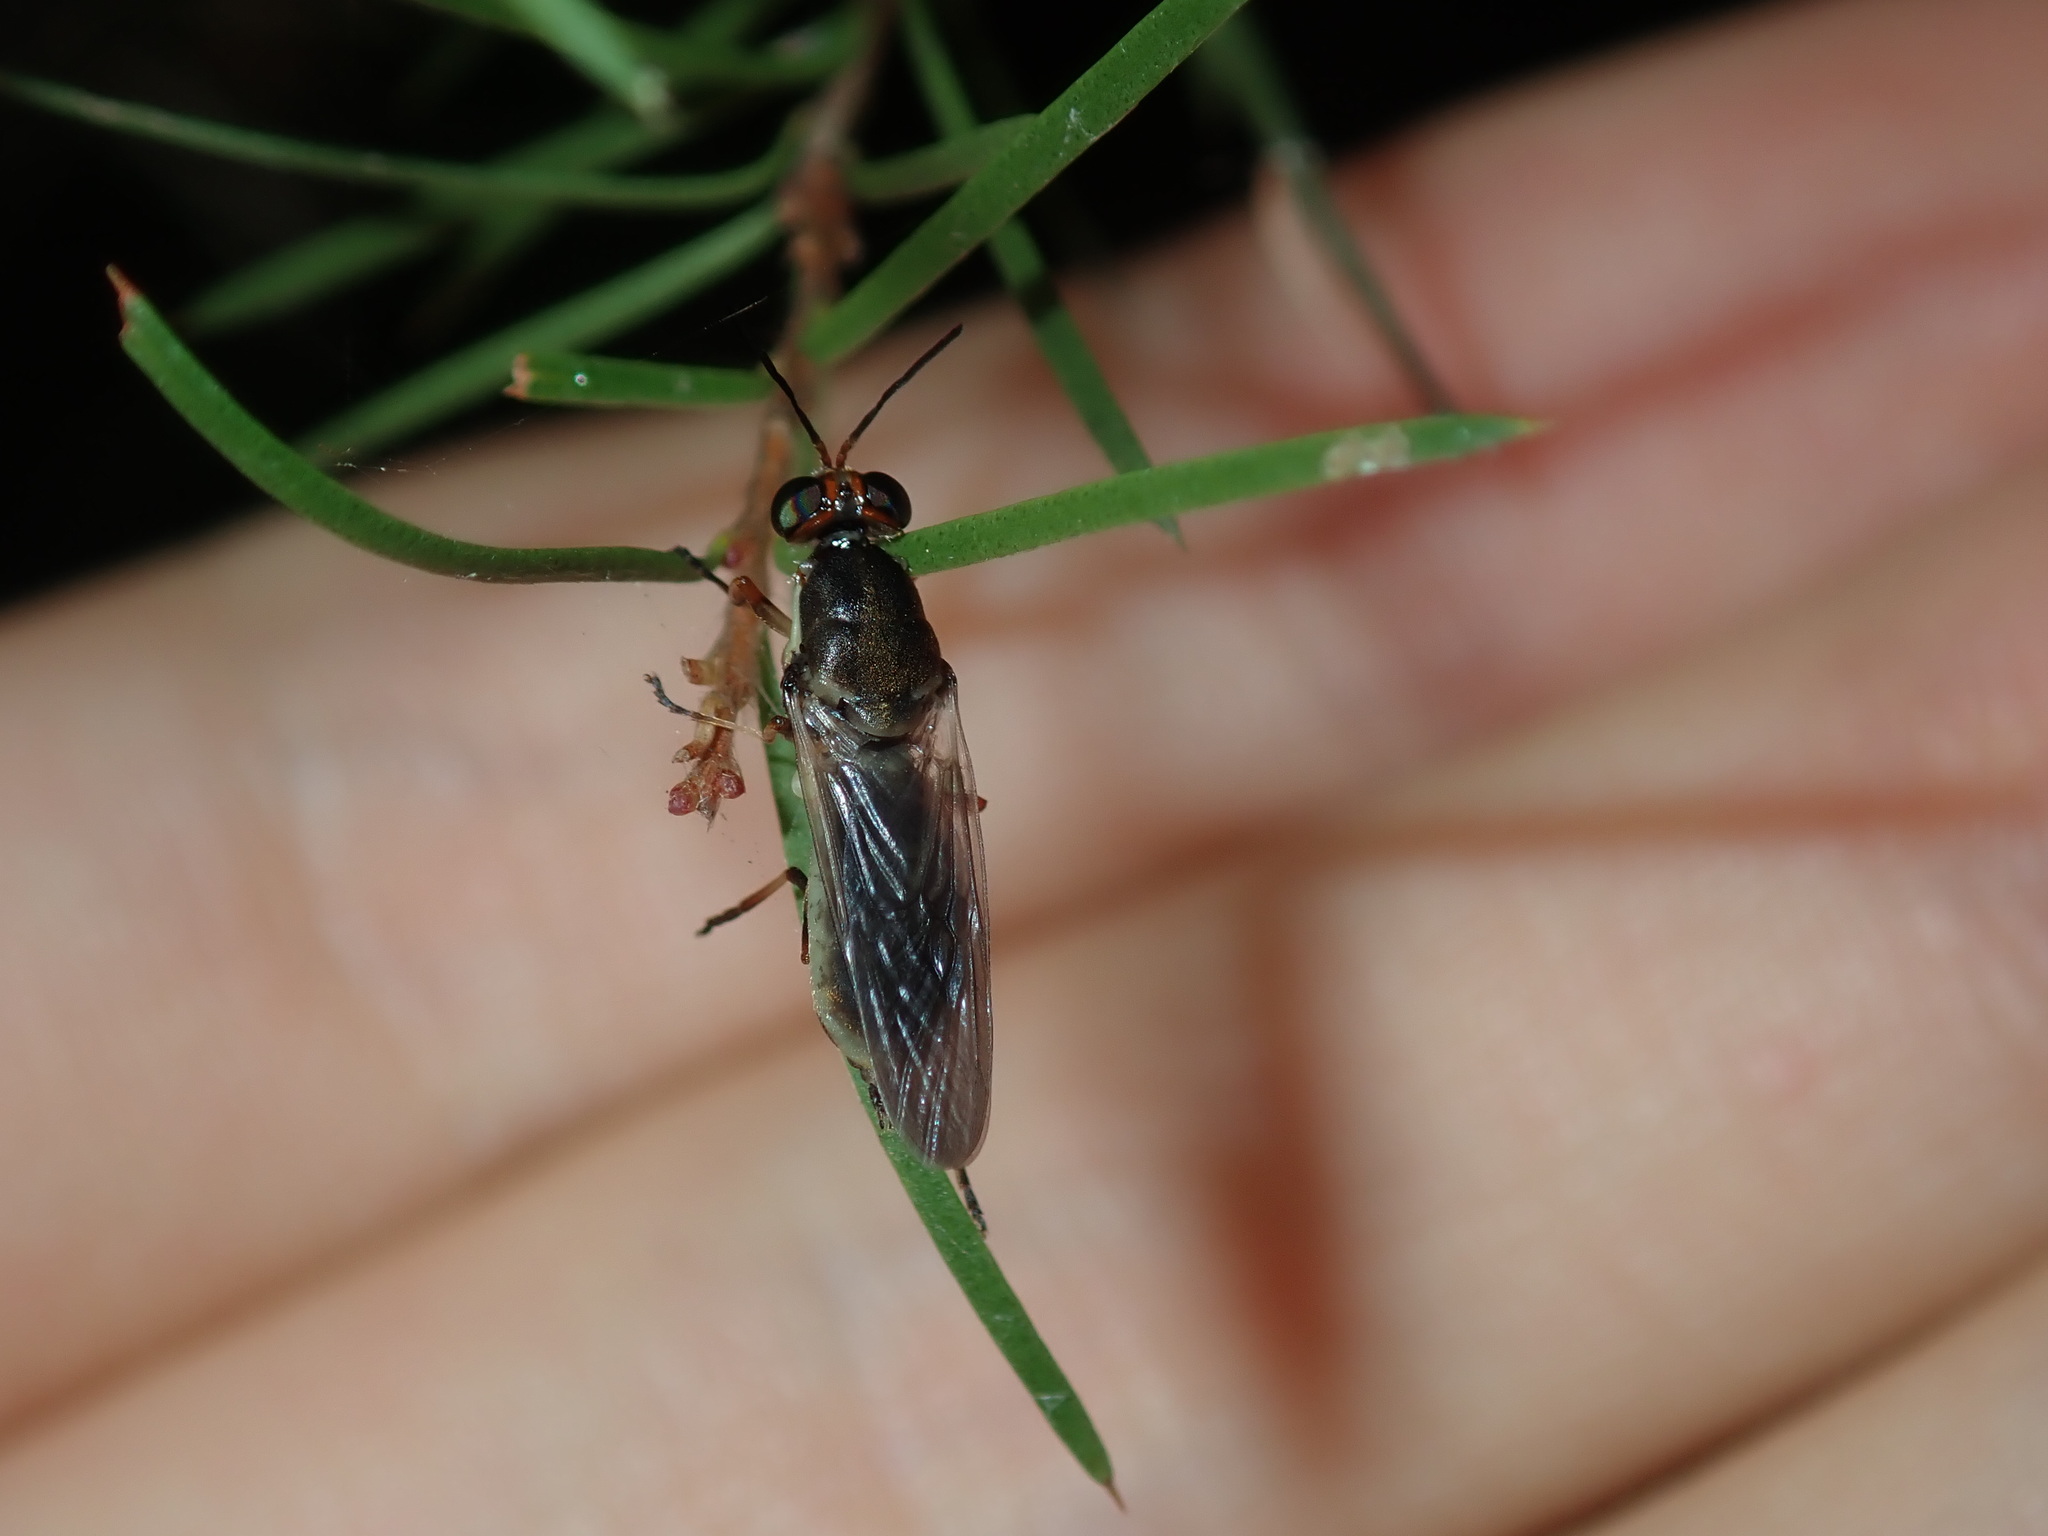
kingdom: Animalia
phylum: Arthropoda
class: Insecta
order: Diptera
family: Stratiomyidae
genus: Lagenosoma
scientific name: Lagenosoma dispar
